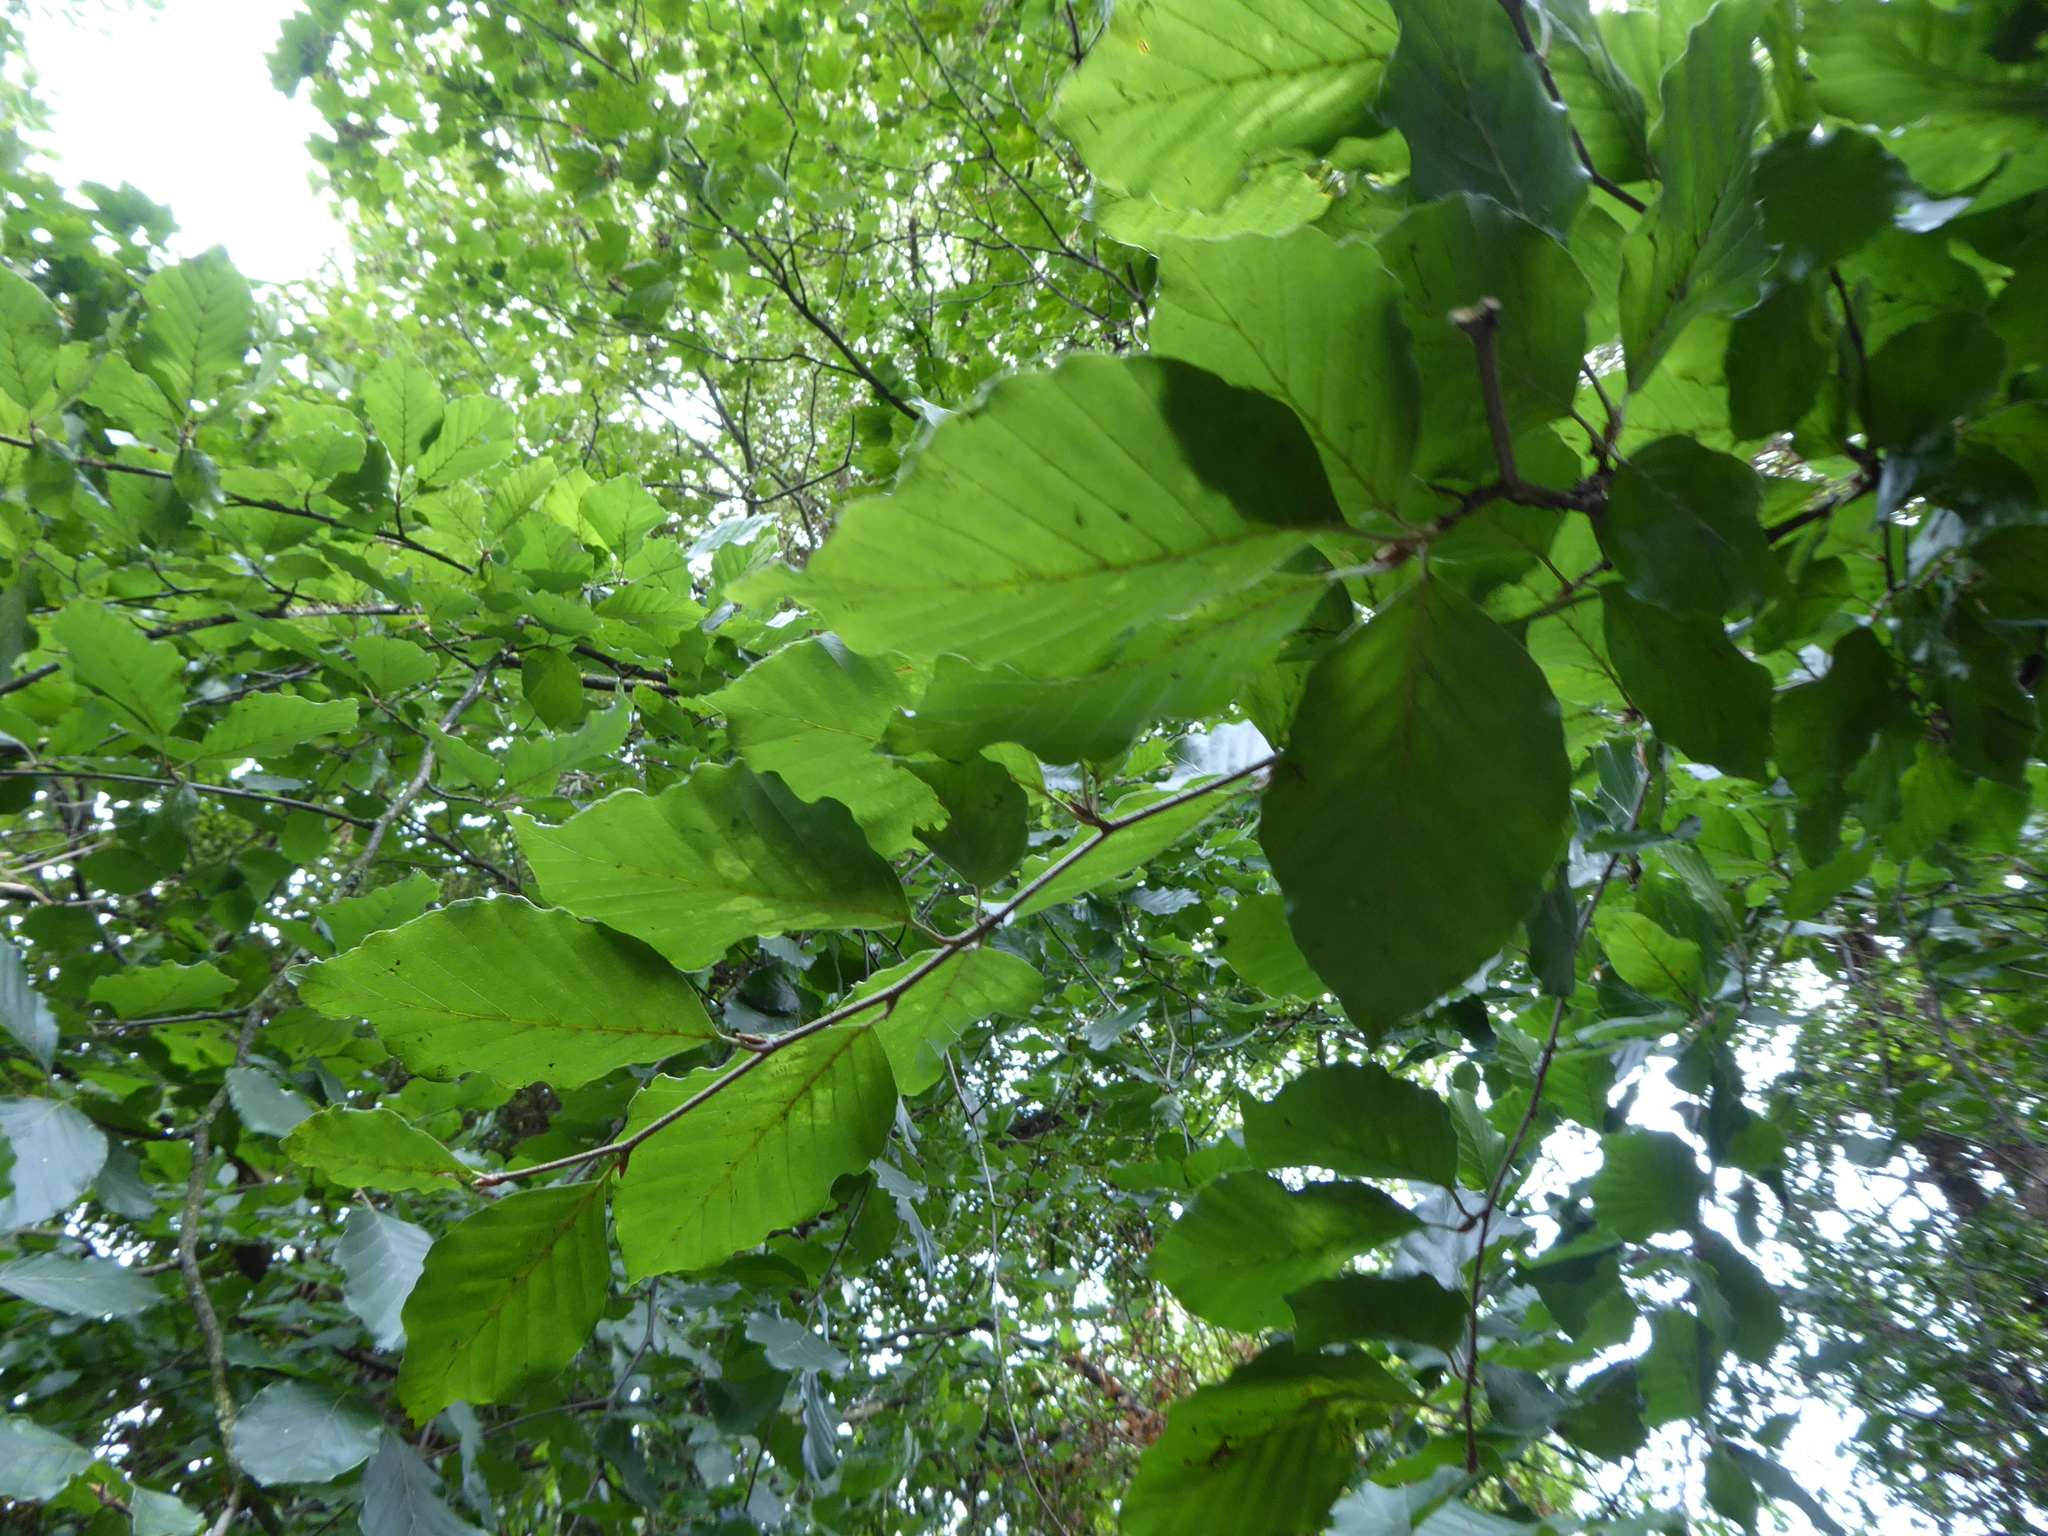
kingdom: Plantae
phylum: Tracheophyta
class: Magnoliopsida
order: Fagales
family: Fagaceae
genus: Fagus
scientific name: Fagus sylvatica
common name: Beech
